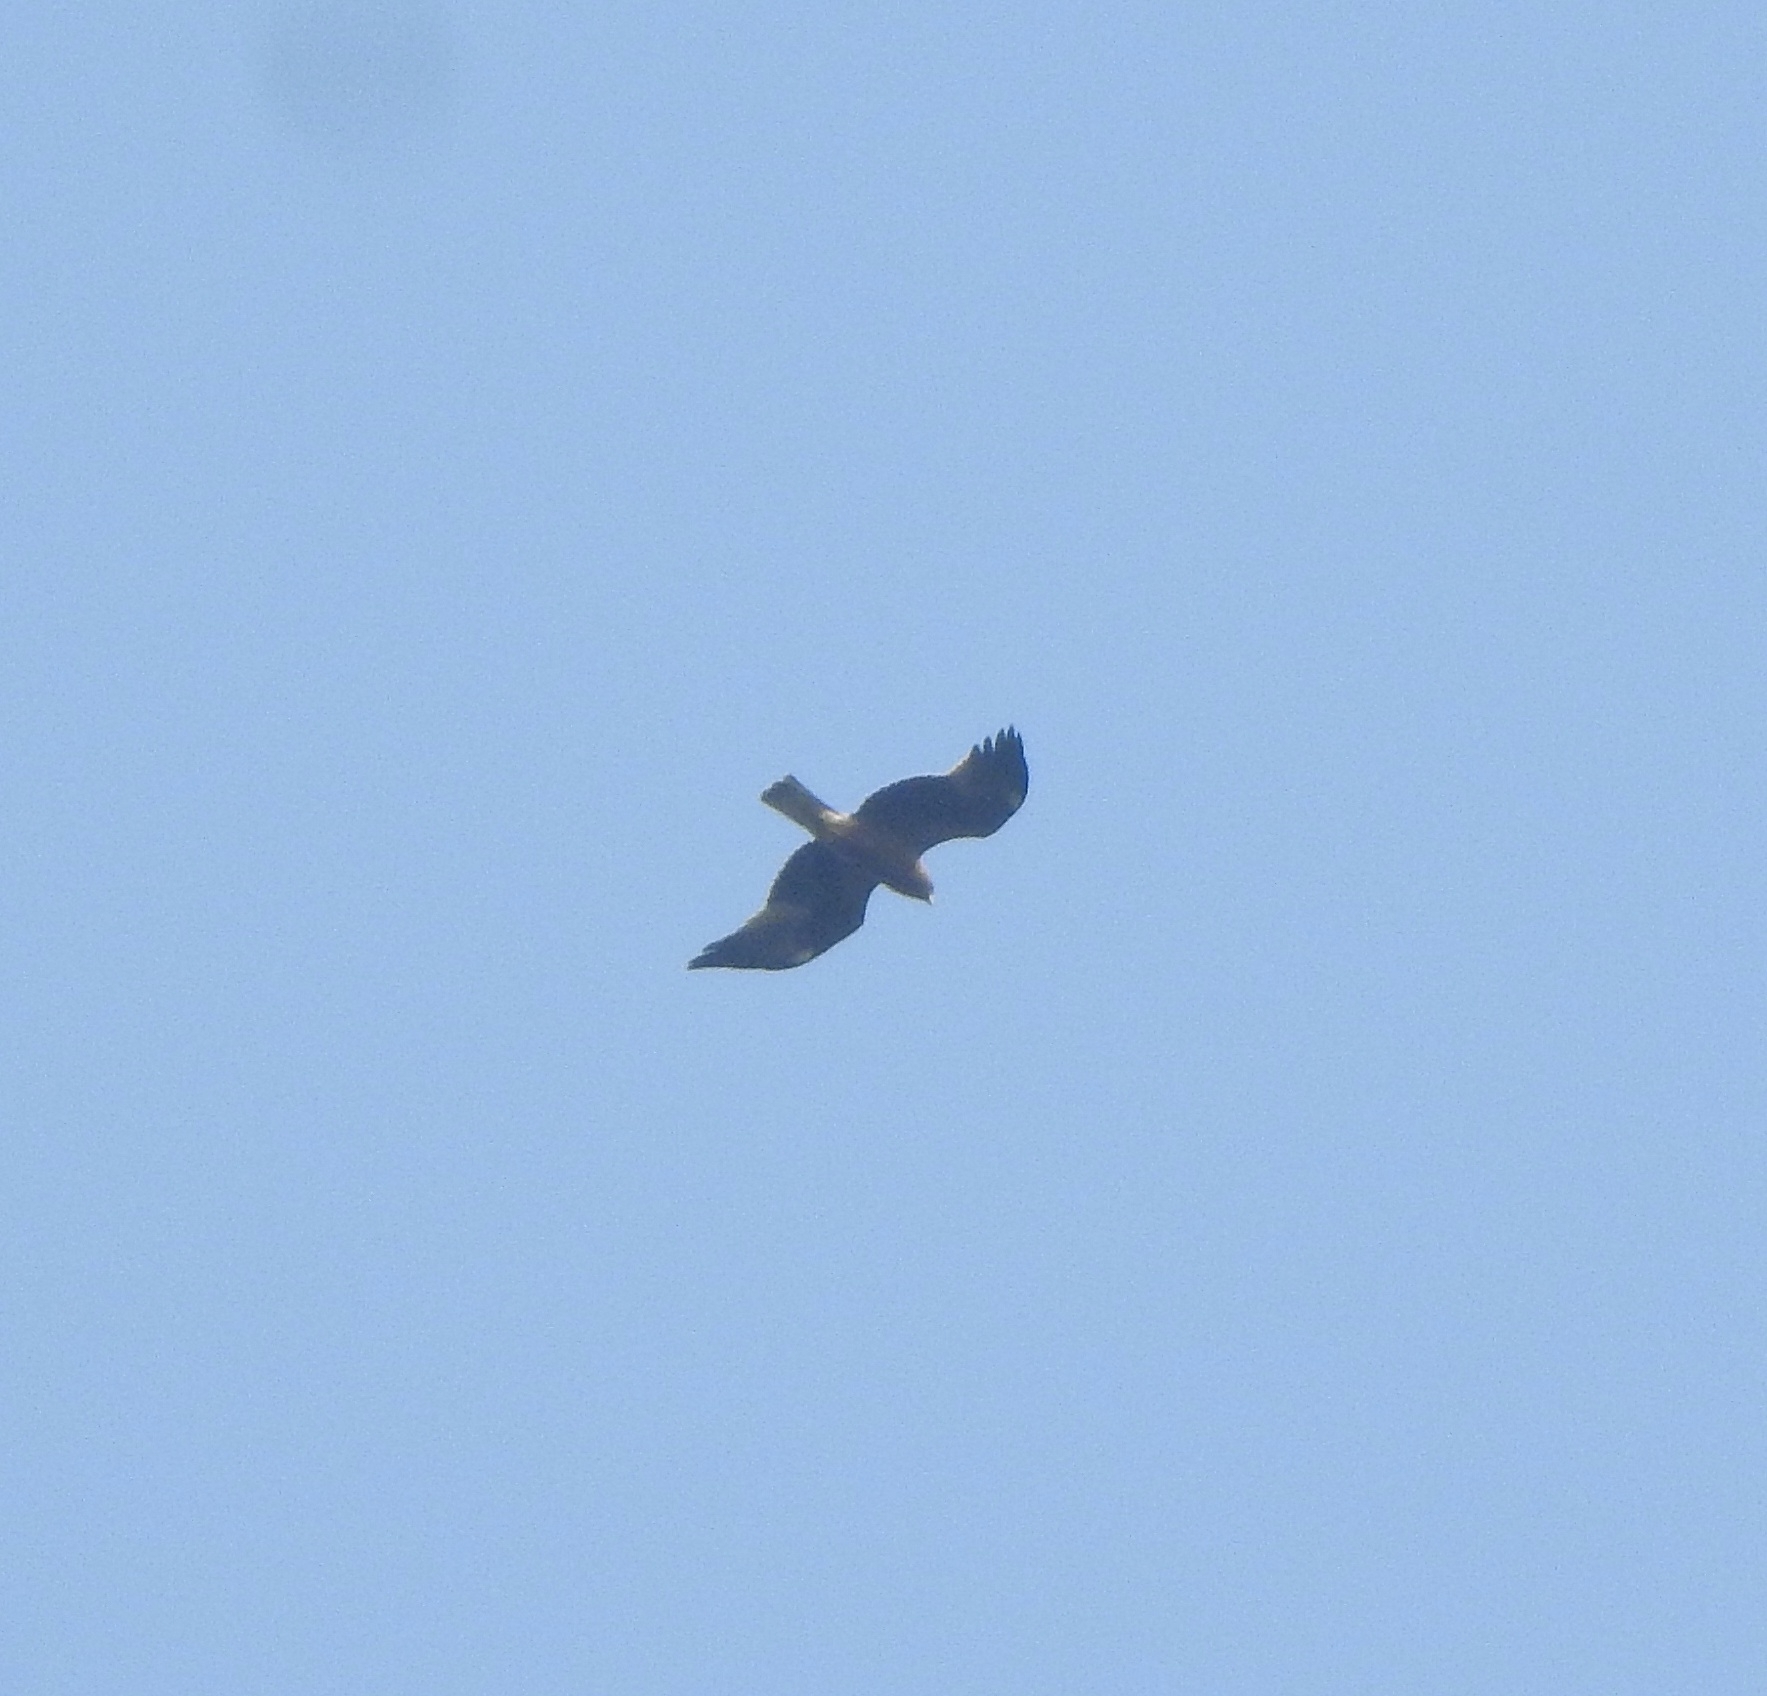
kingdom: Animalia
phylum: Chordata
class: Aves
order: Accipitriformes
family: Accipitridae
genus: Hieraaetus
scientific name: Hieraaetus pennatus
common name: Booted eagle
